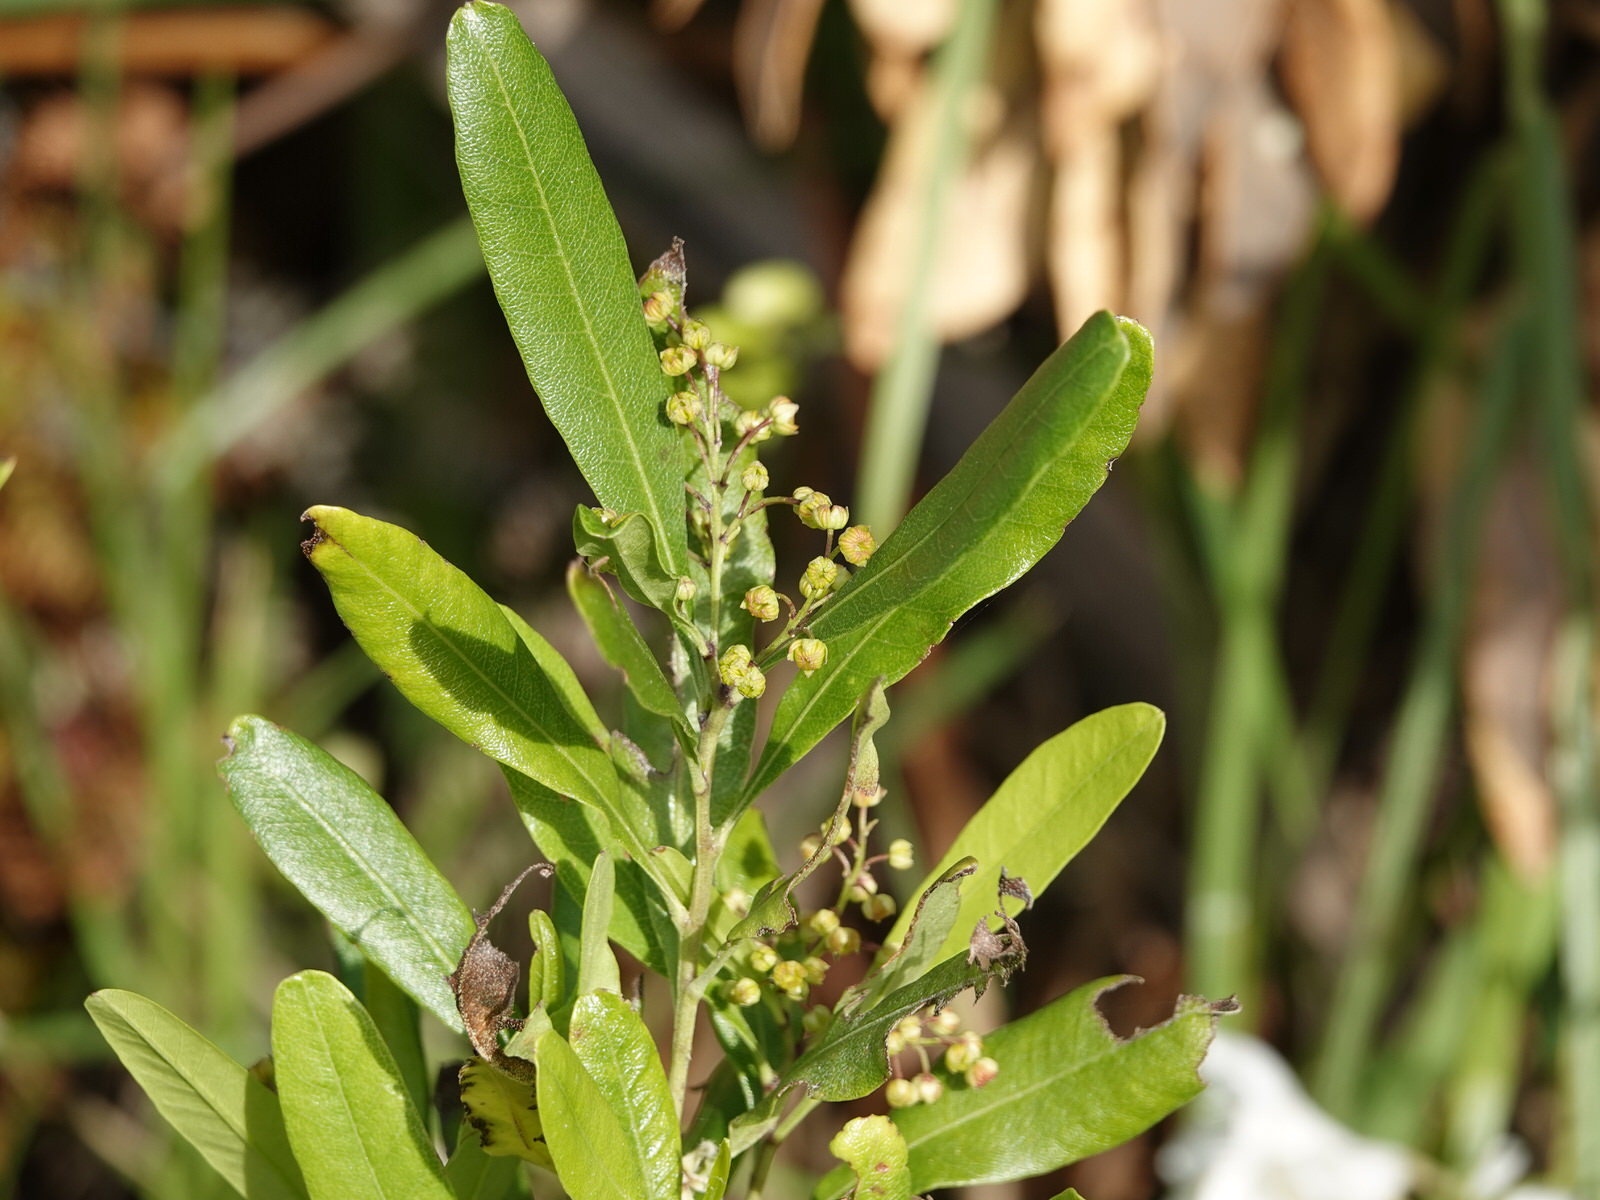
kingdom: Plantae
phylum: Tracheophyta
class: Magnoliopsida
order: Sapindales
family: Sapindaceae
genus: Dodonaea
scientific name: Dodonaea viscosa
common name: Hopbush
